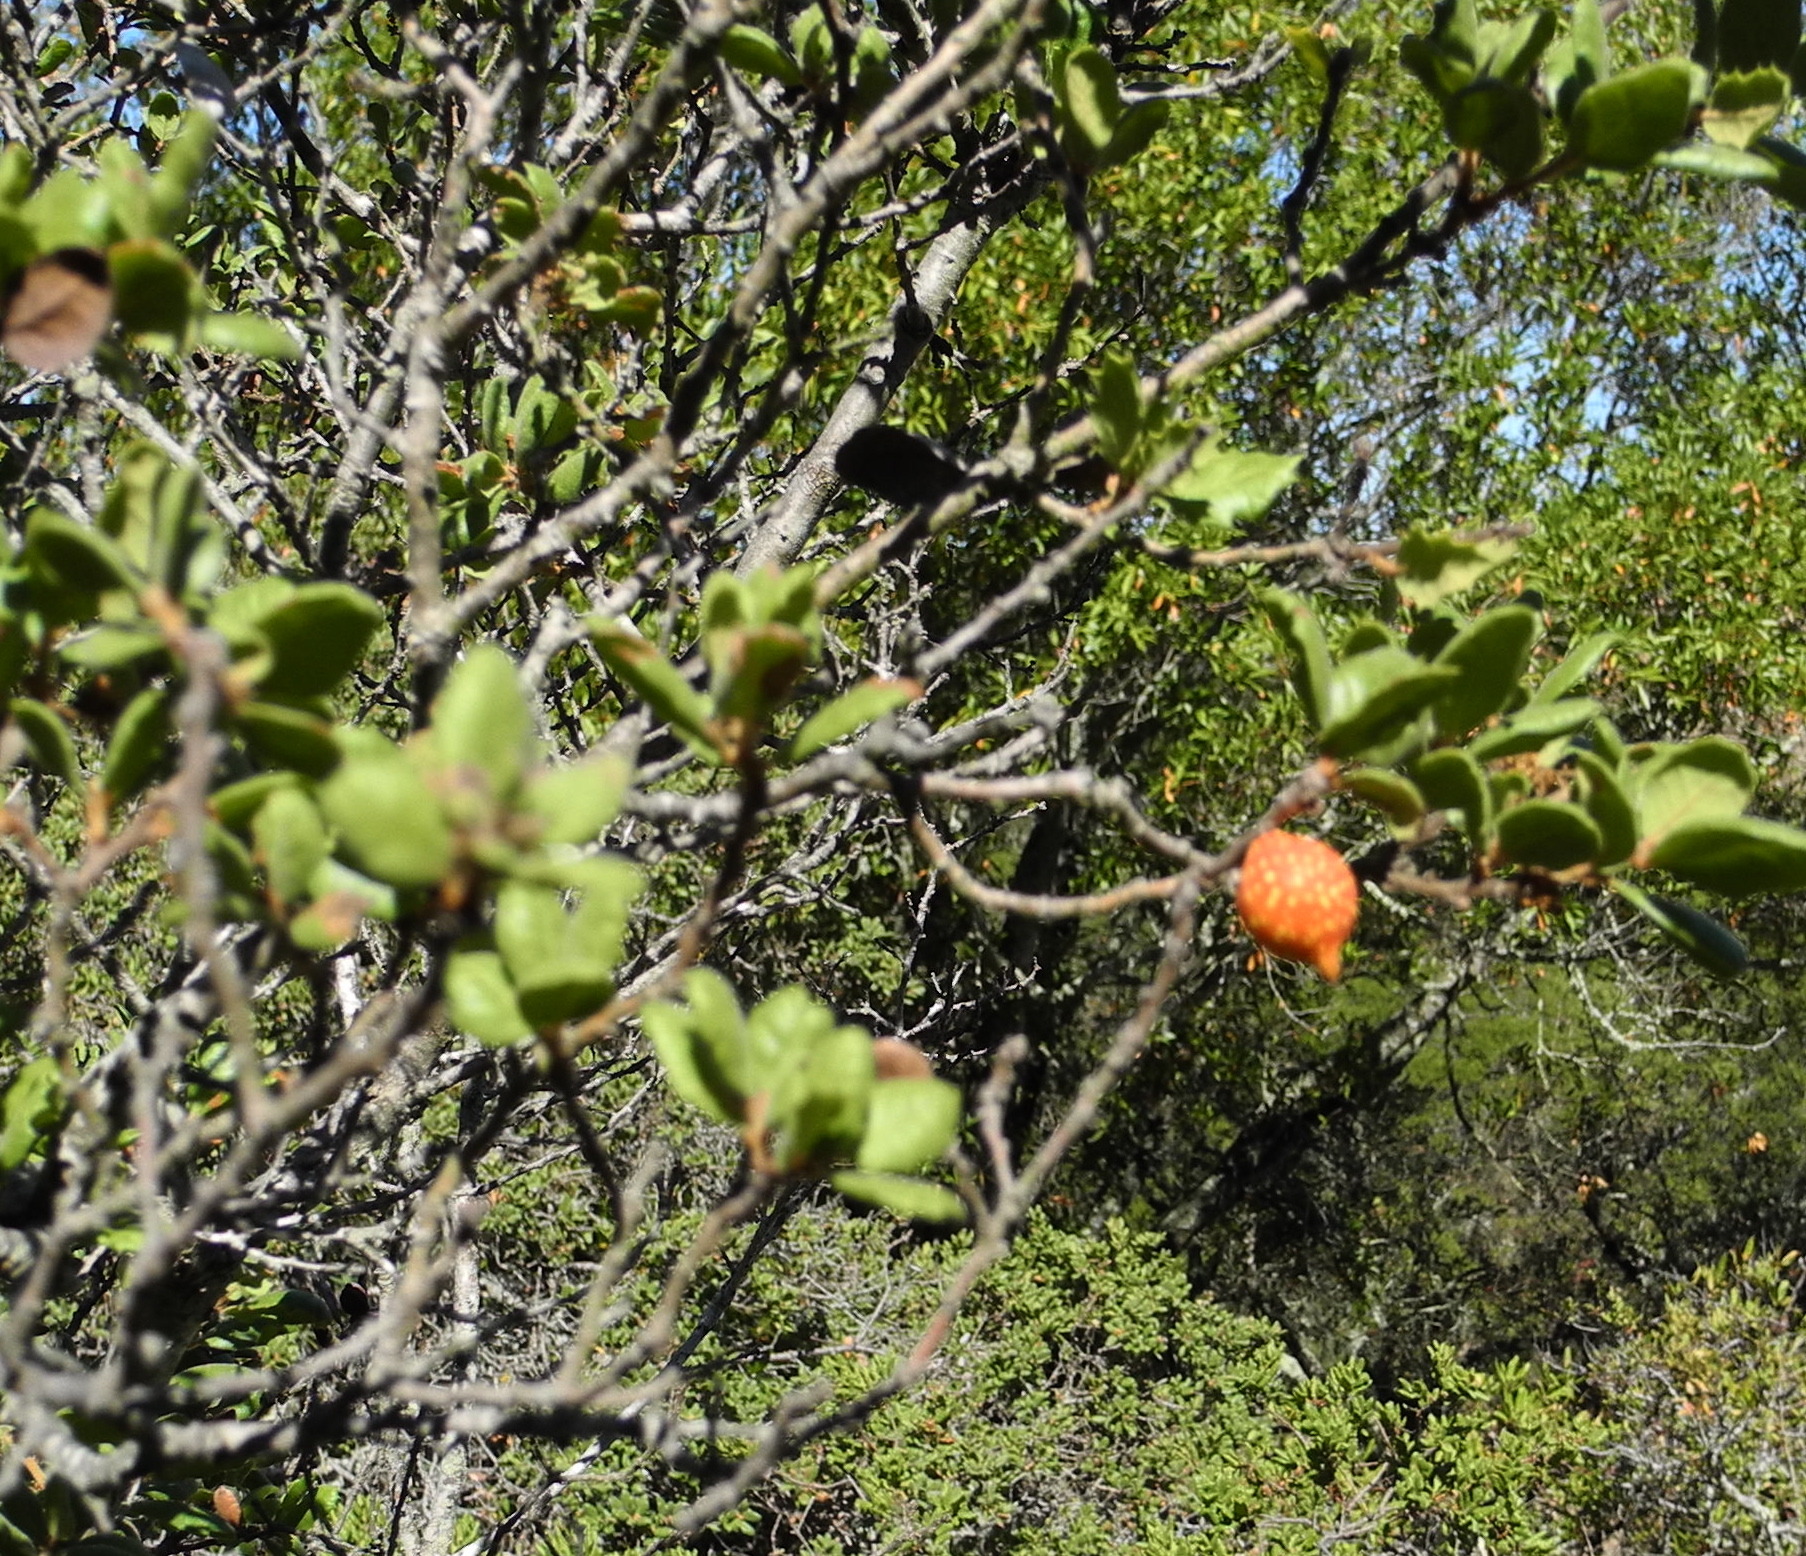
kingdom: Animalia
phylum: Arthropoda
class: Insecta
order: Hymenoptera
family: Cynipidae
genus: Burnettweldia
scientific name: Burnettweldia
